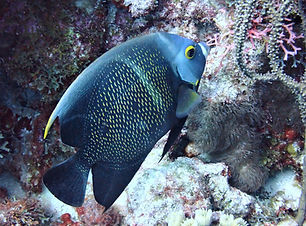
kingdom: Animalia
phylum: Chordata
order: Perciformes
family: Pomacanthidae
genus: Pomacanthus
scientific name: Pomacanthus paru
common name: French angelfish
